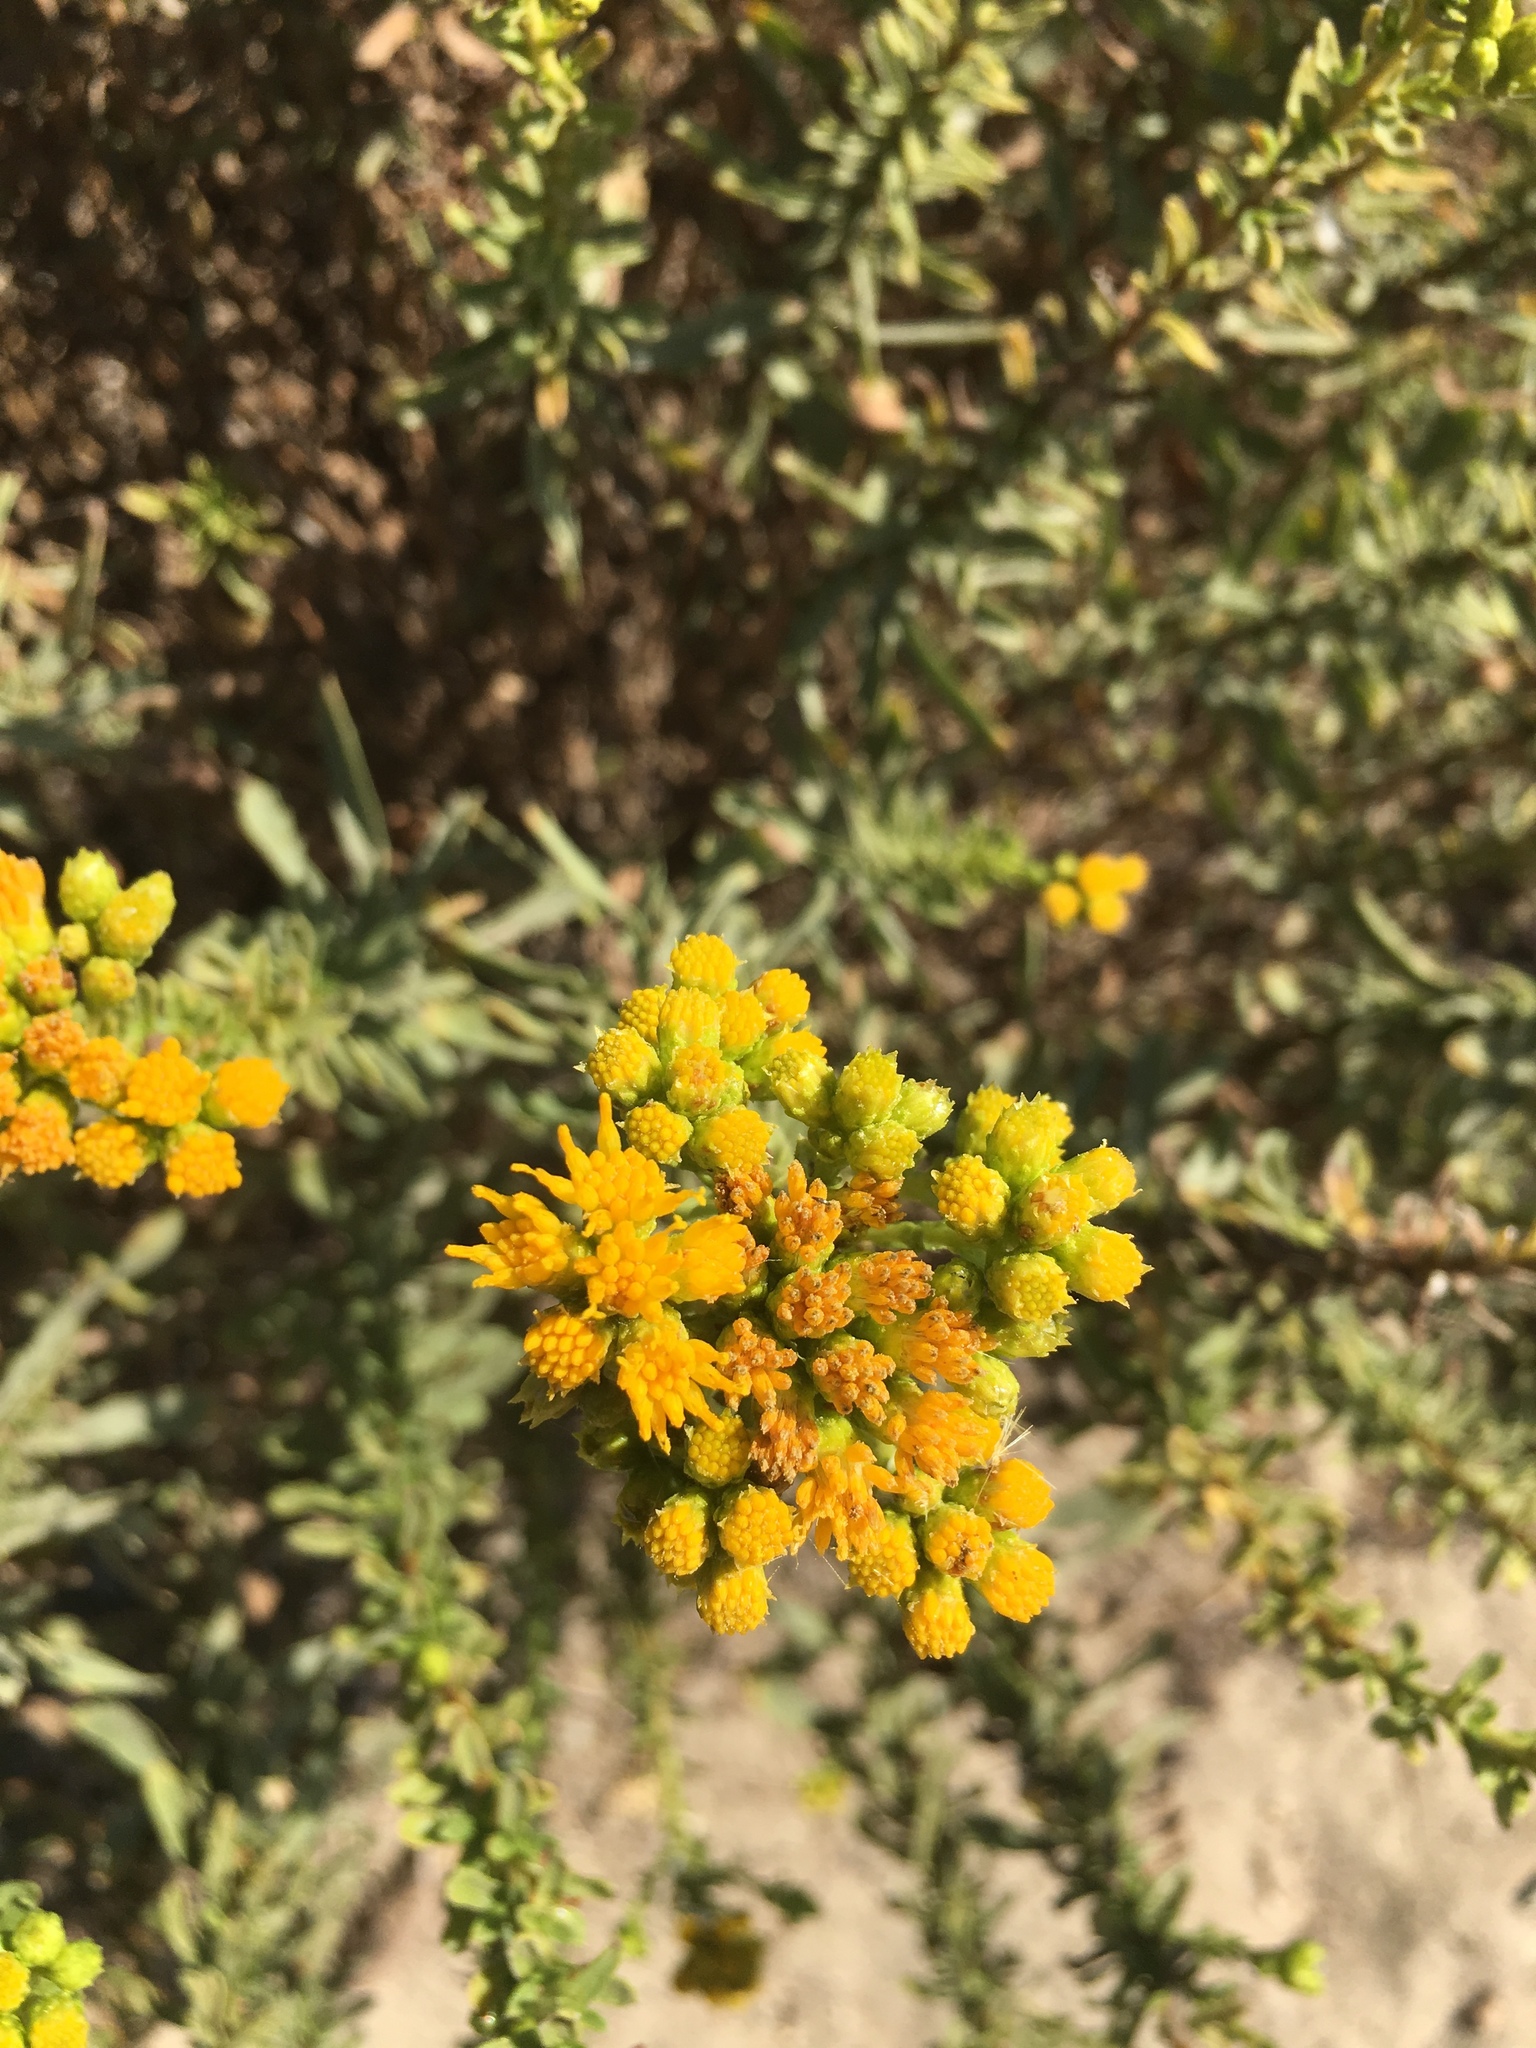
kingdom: Plantae
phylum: Tracheophyta
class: Magnoliopsida
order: Asterales
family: Asteraceae
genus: Isocoma
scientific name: Isocoma menziesii
